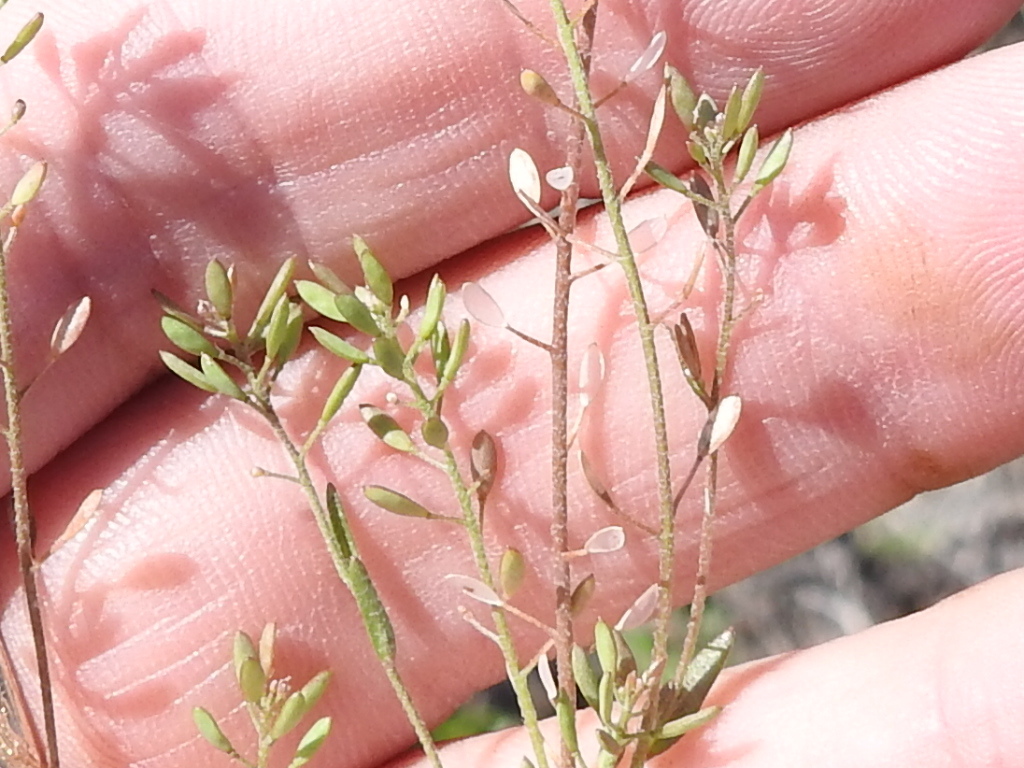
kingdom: Plantae
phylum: Tracheophyta
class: Magnoliopsida
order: Brassicales
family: Brassicaceae
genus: Abdra
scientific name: Abdra brachycarpa
